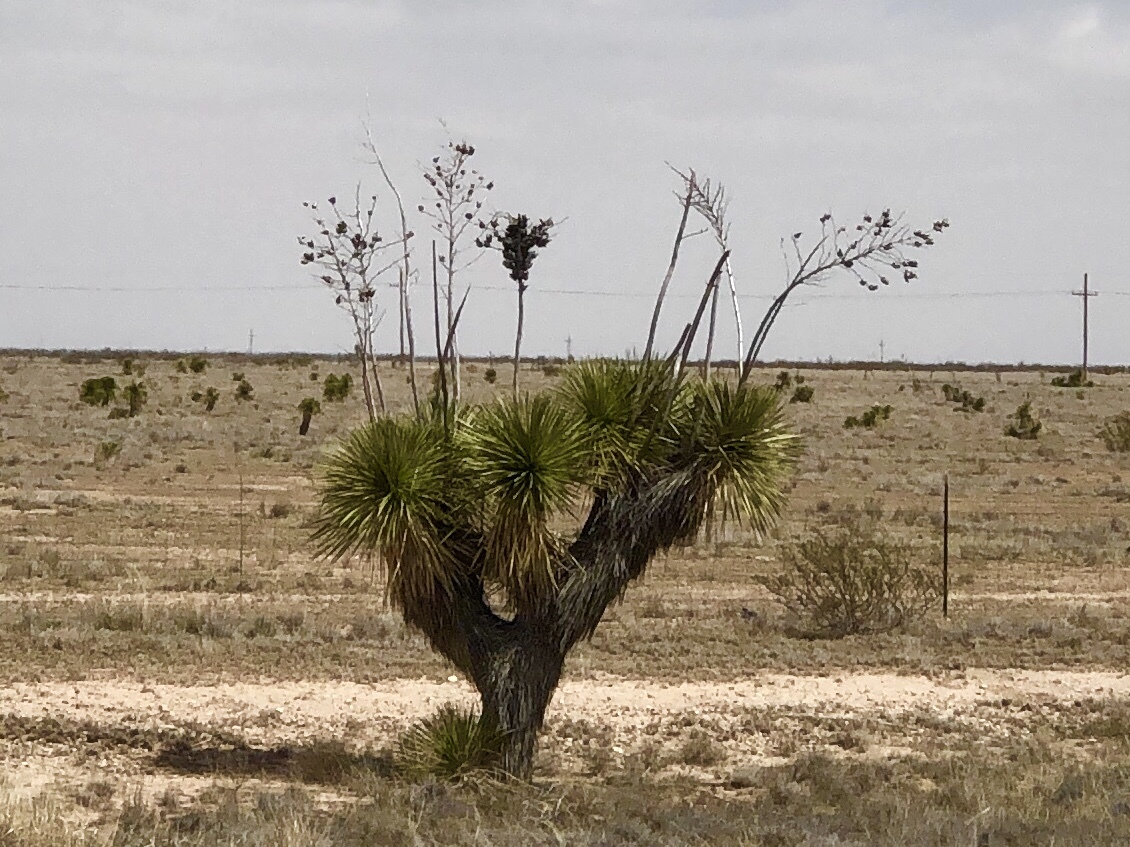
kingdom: Plantae
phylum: Tracheophyta
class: Liliopsida
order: Asparagales
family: Asparagaceae
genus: Yucca
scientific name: Yucca elata
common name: Palmella
